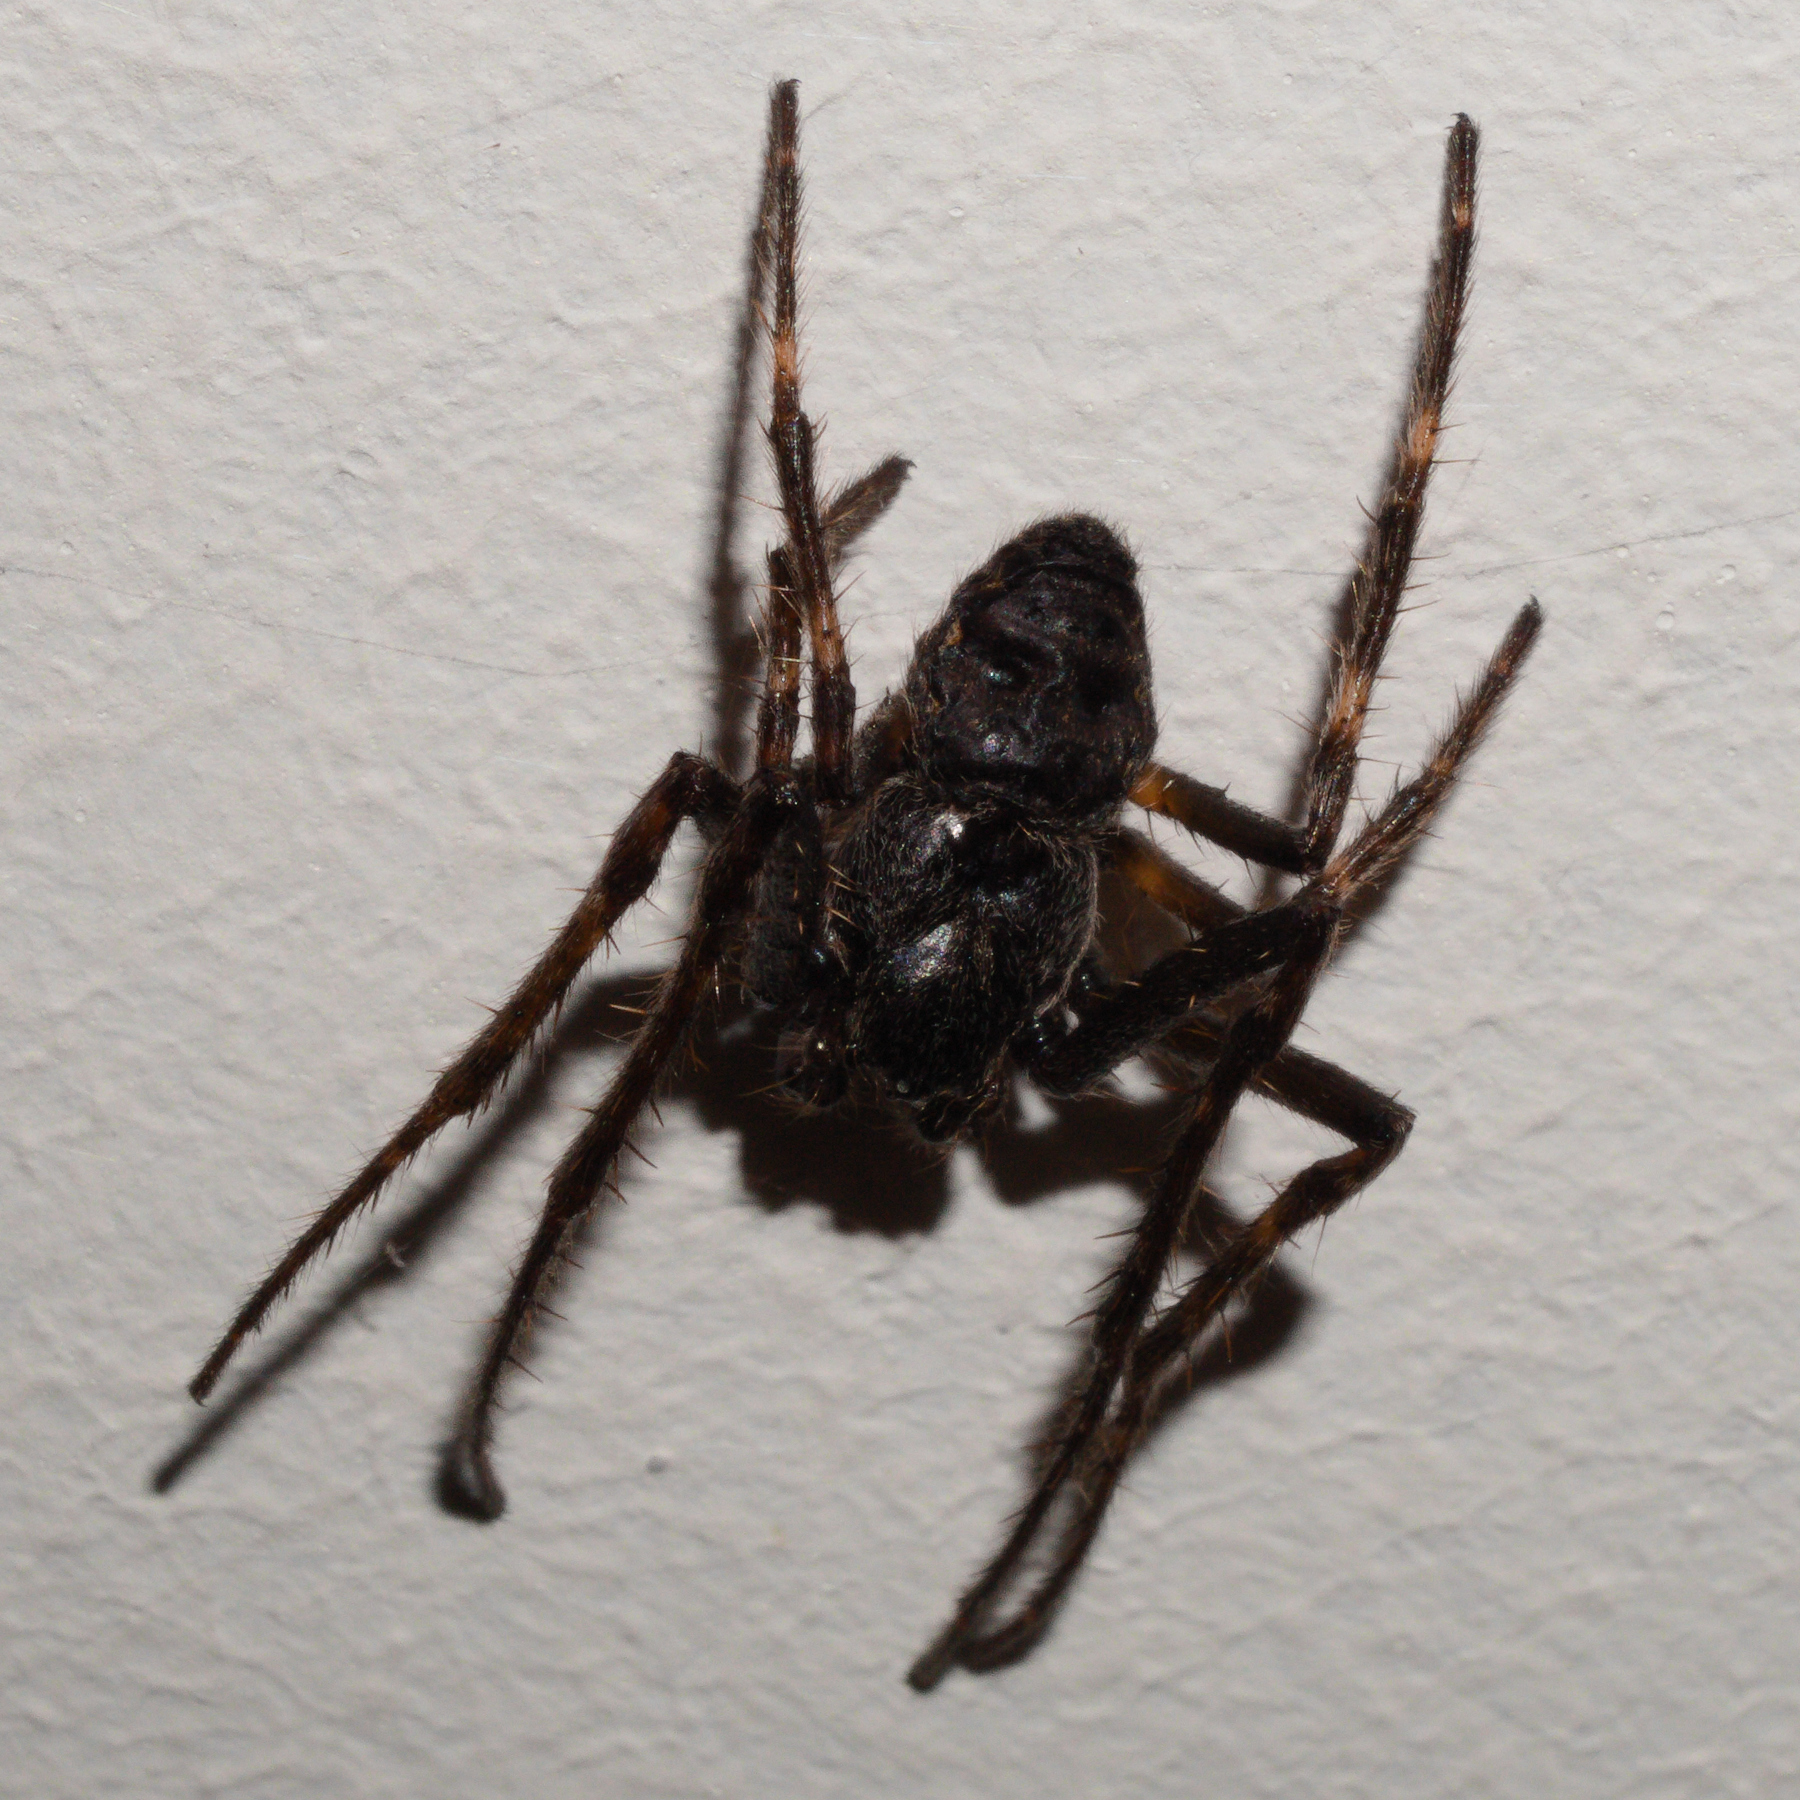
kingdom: Animalia
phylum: Arthropoda
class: Arachnida
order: Araneae
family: Araneidae
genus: Nuctenea
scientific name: Nuctenea umbratica
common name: Toad spider
